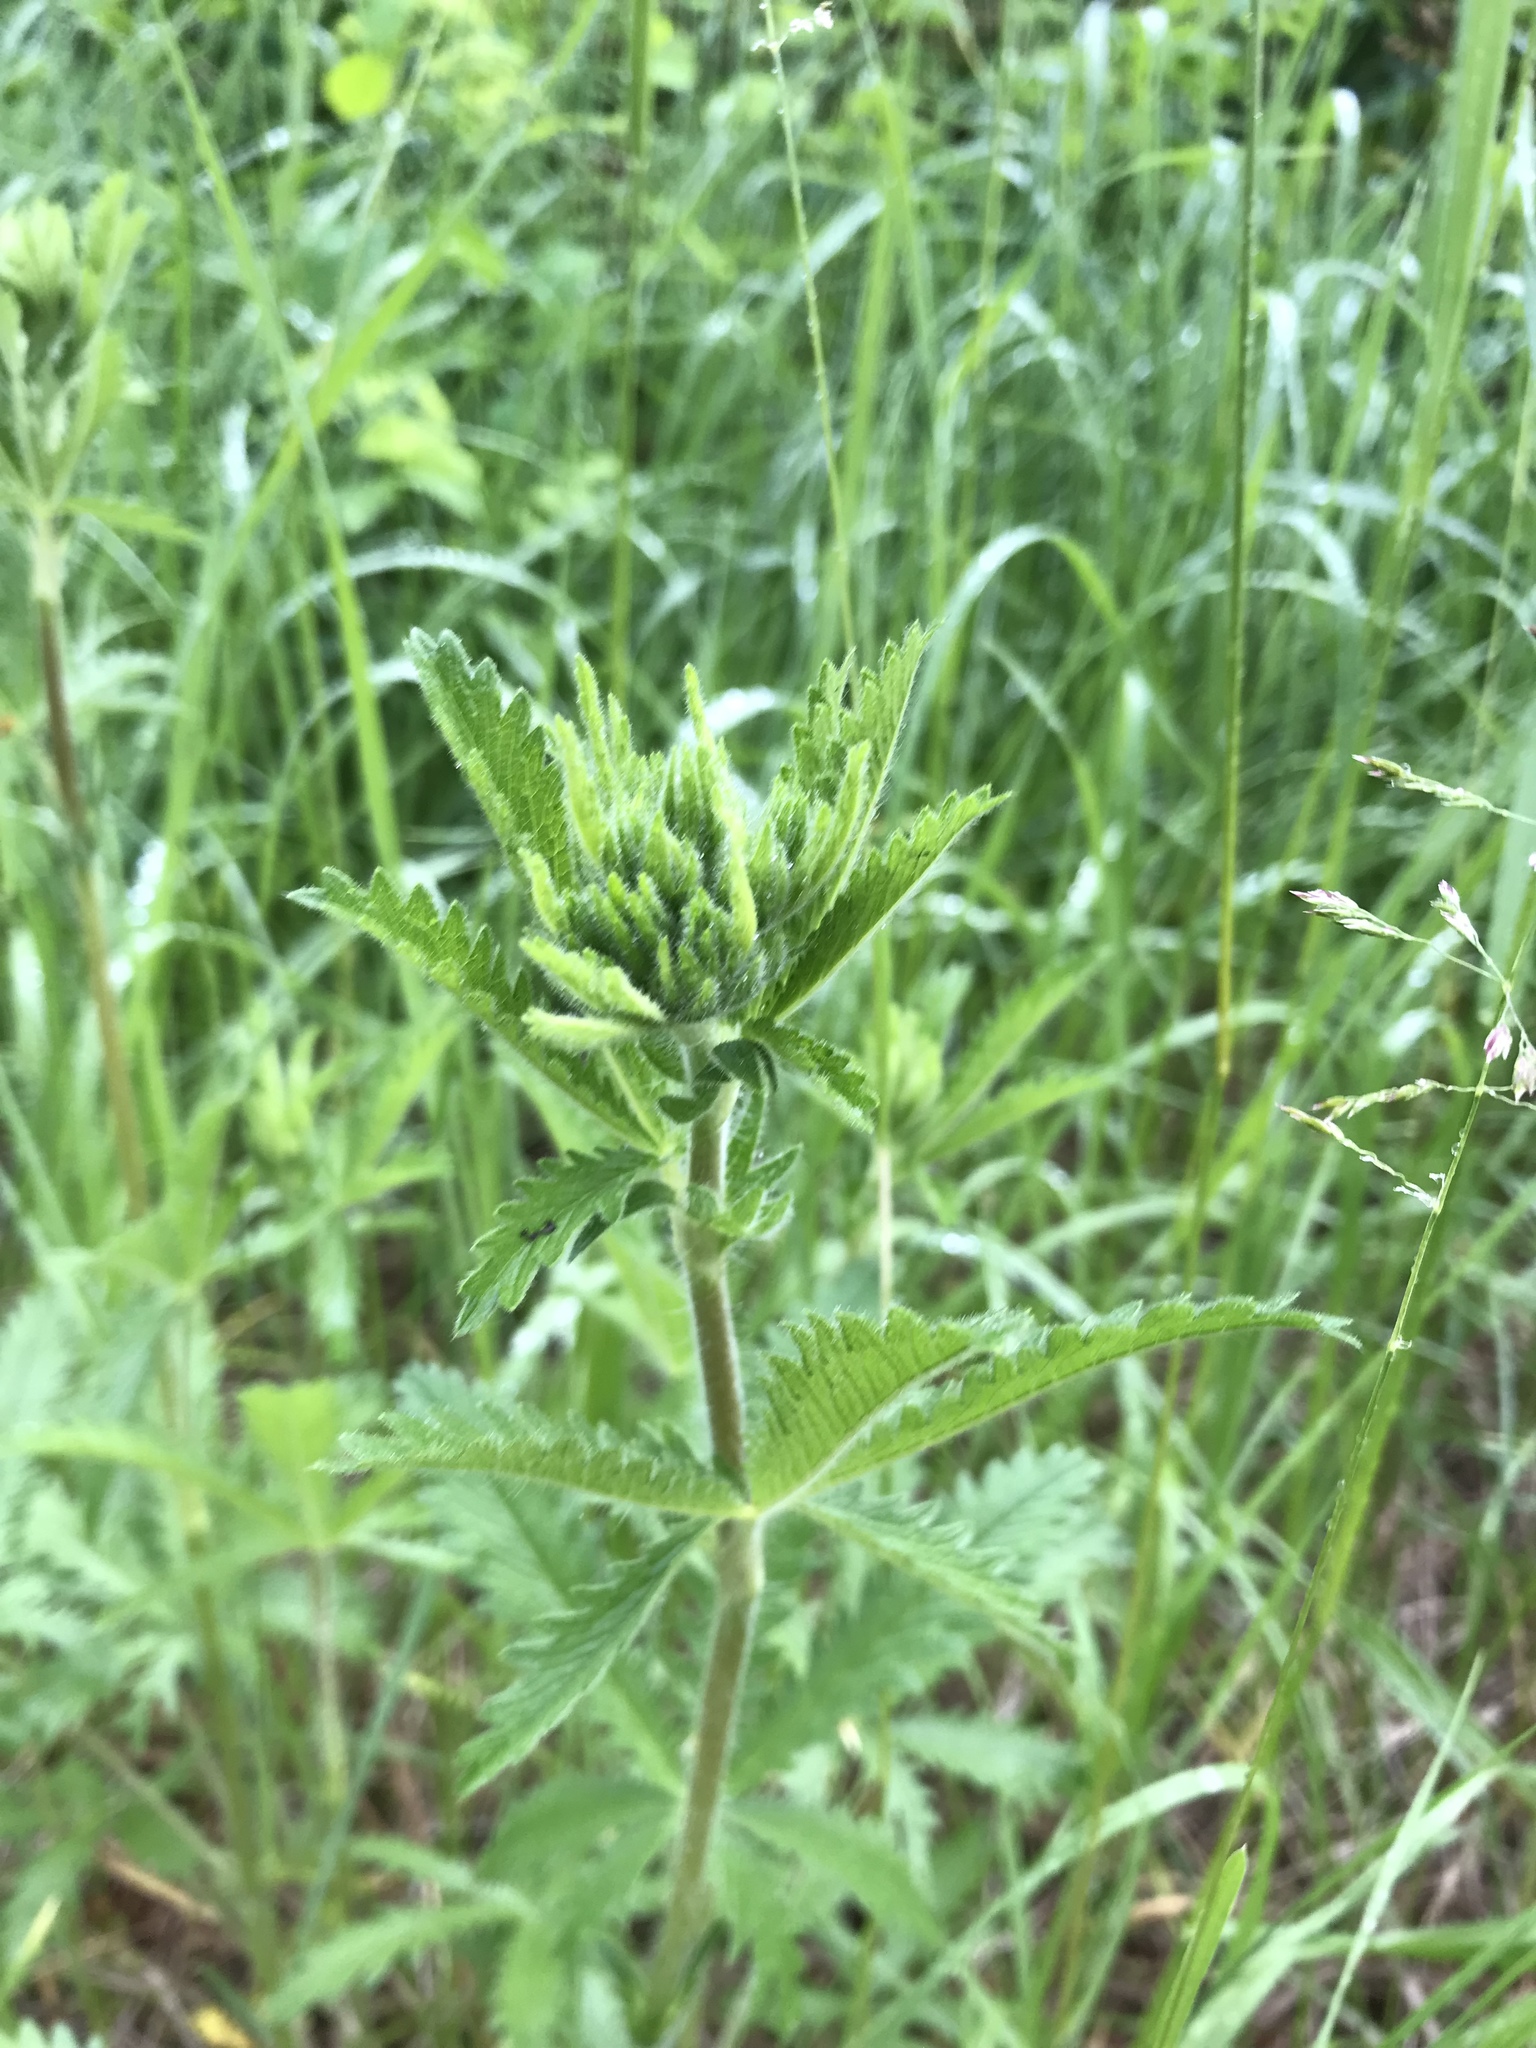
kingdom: Plantae
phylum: Tracheophyta
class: Magnoliopsida
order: Rosales
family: Rosaceae
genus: Potentilla
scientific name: Potentilla recta
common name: Sulphur cinquefoil
